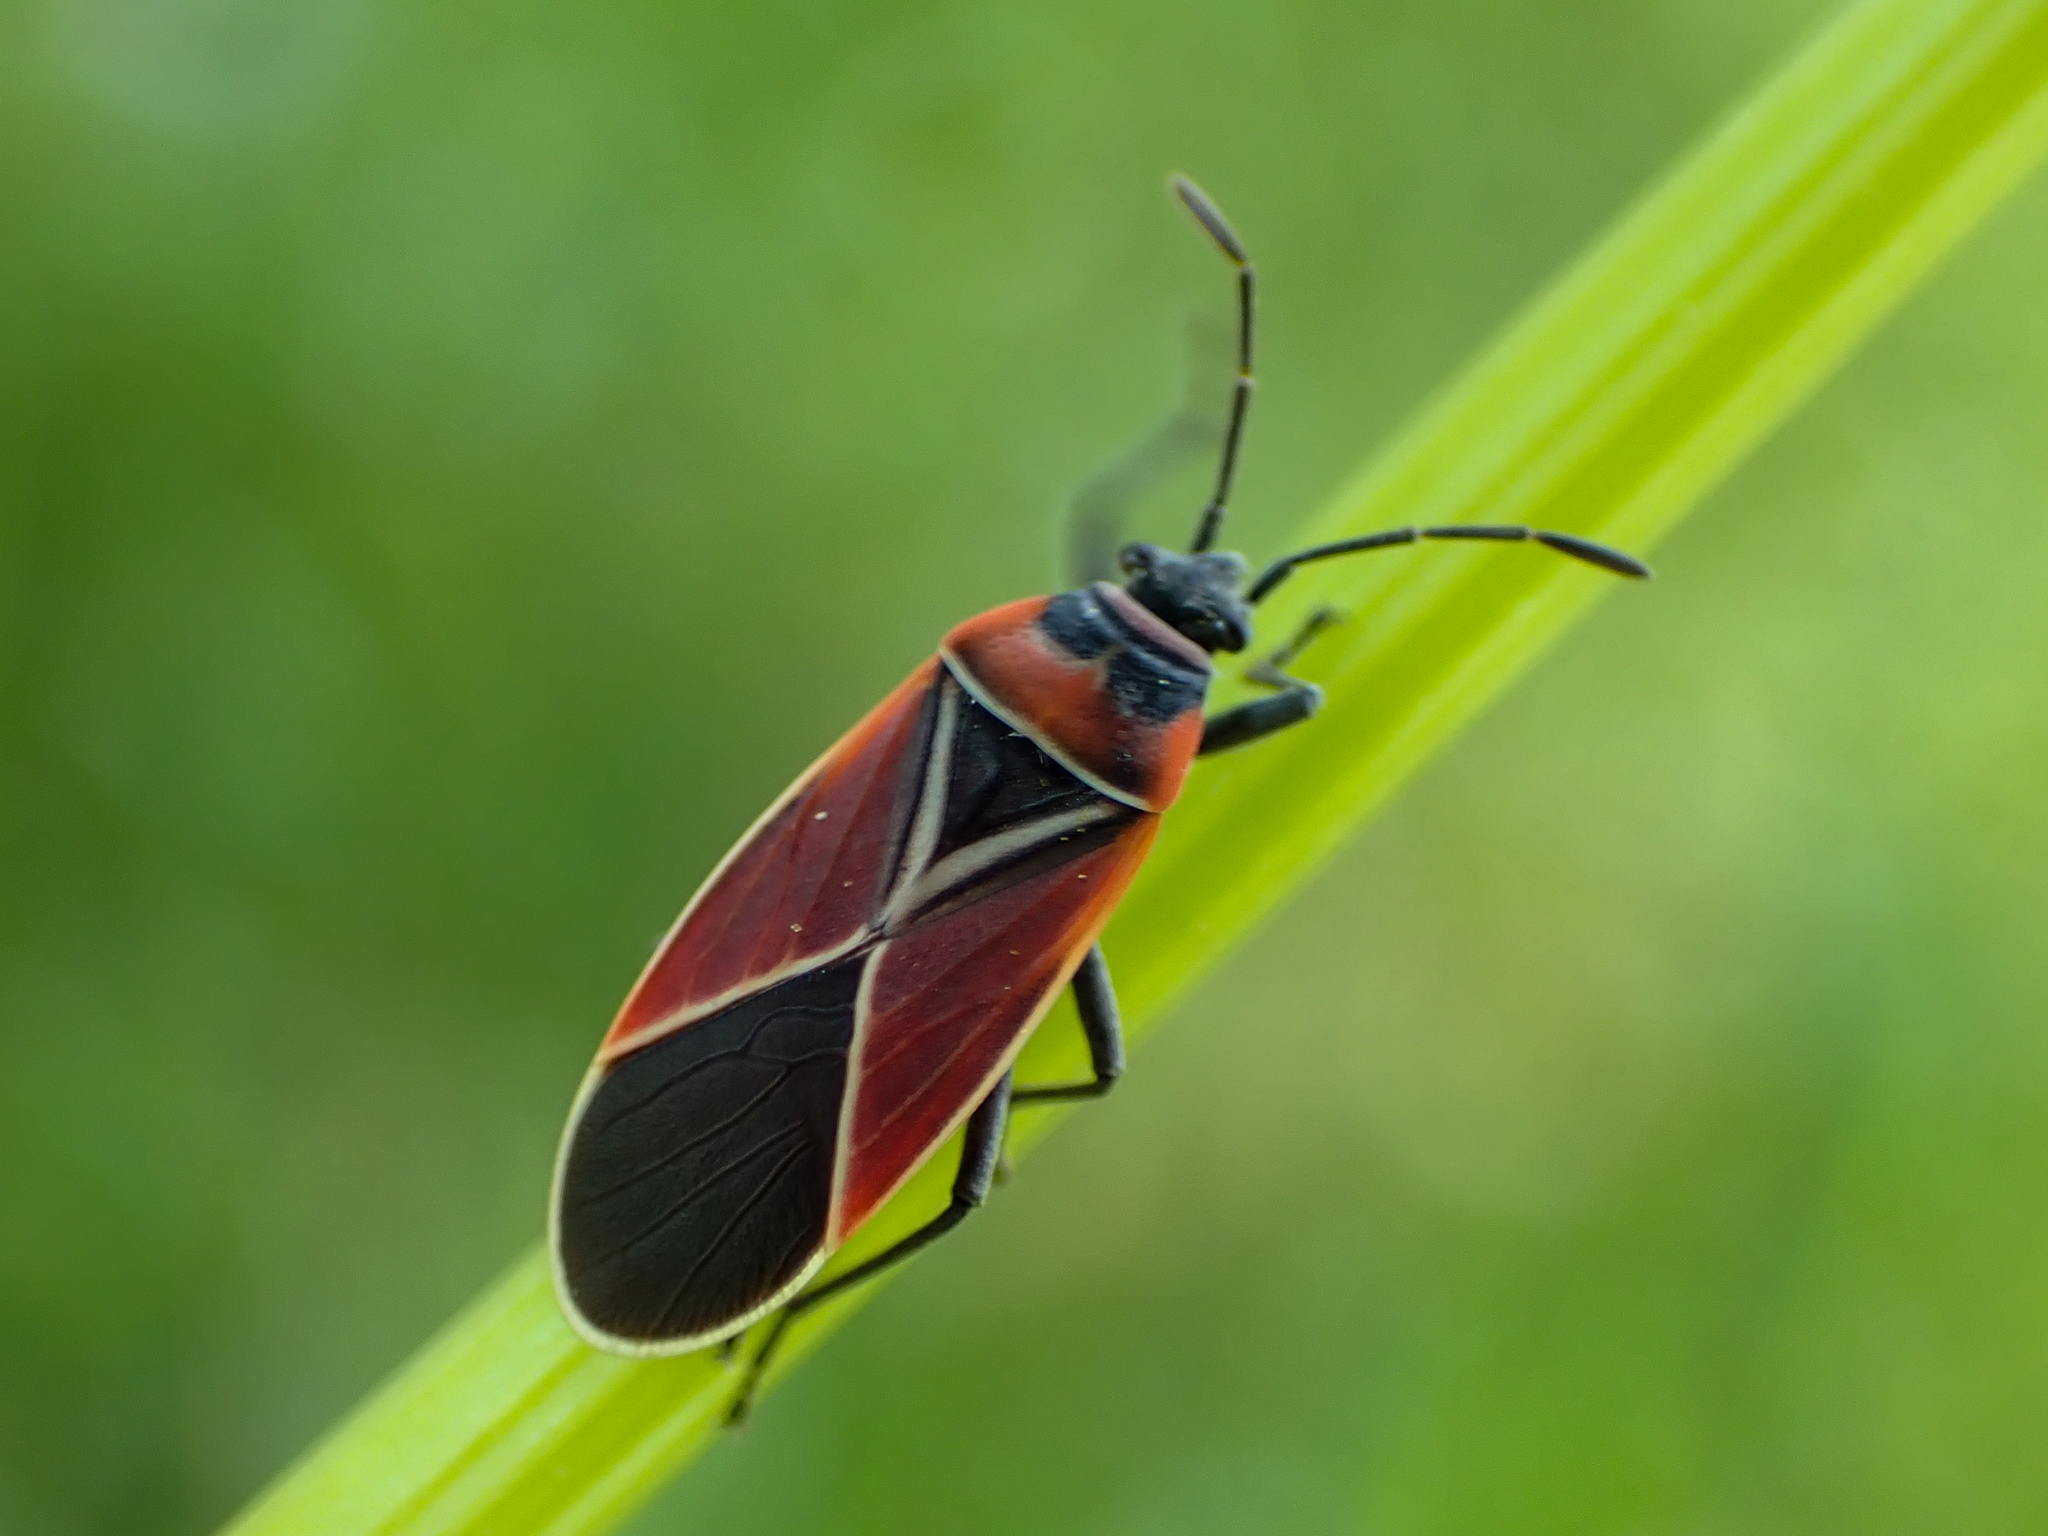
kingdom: Animalia
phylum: Arthropoda
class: Insecta
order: Hemiptera
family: Lygaeidae
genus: Neacoryphus
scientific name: Neacoryphus bicrucis
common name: Lygaeid bug
